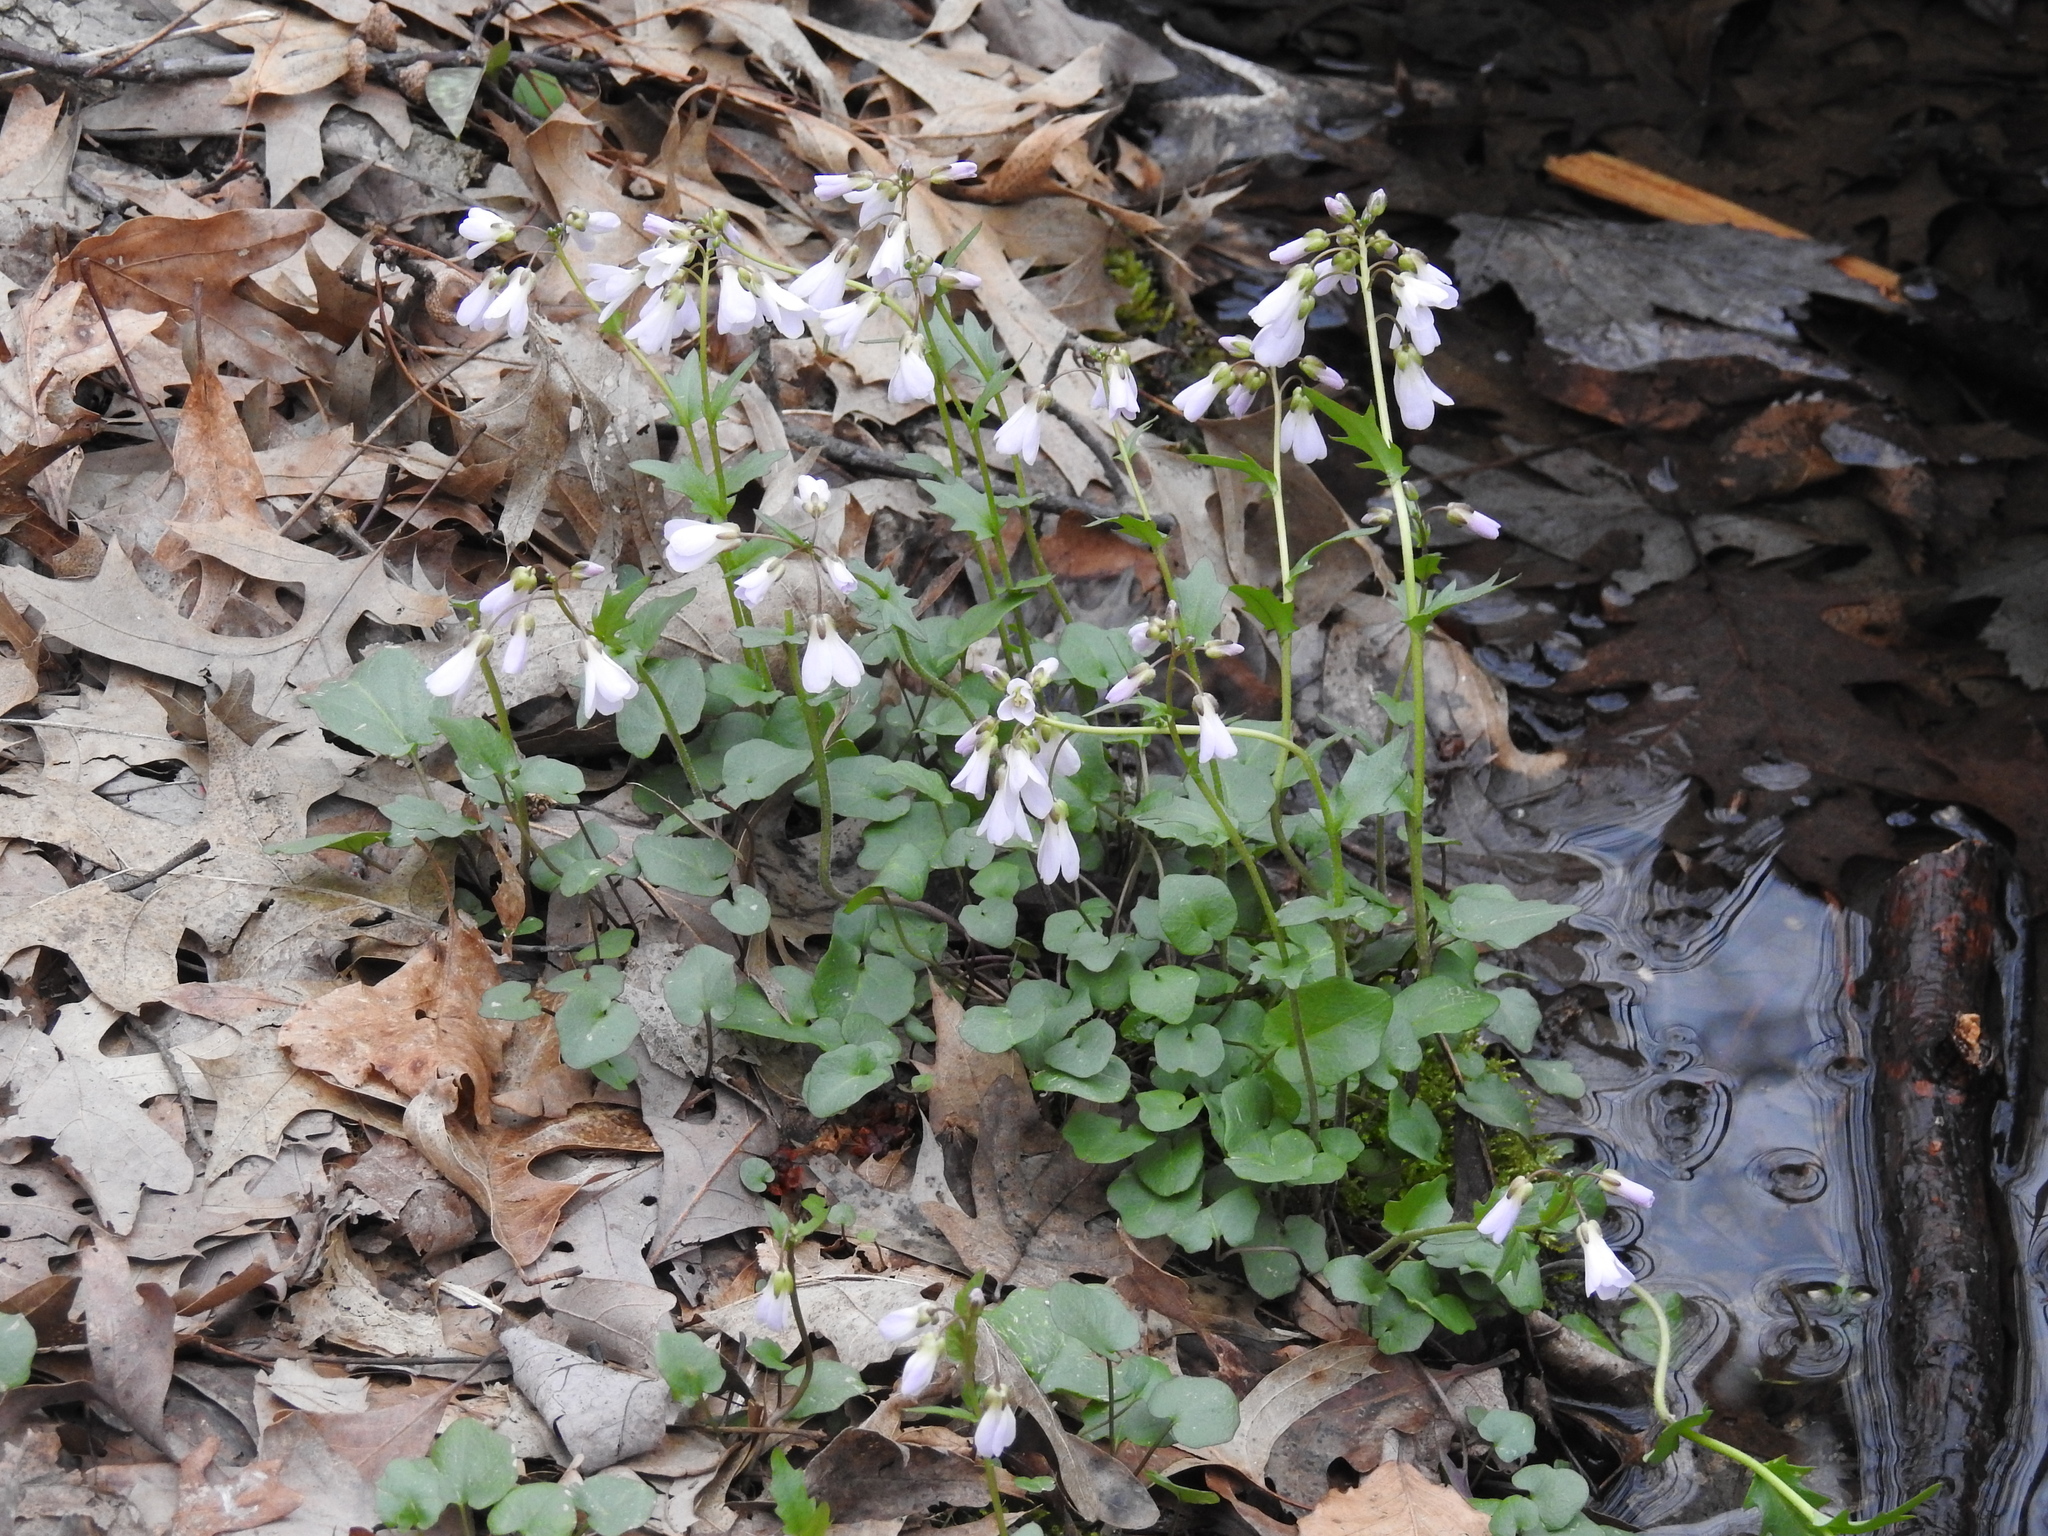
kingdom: Plantae
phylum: Tracheophyta
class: Magnoliopsida
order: Brassicales
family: Brassicaceae
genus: Cardamine
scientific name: Cardamine douglassii
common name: Purple cress
